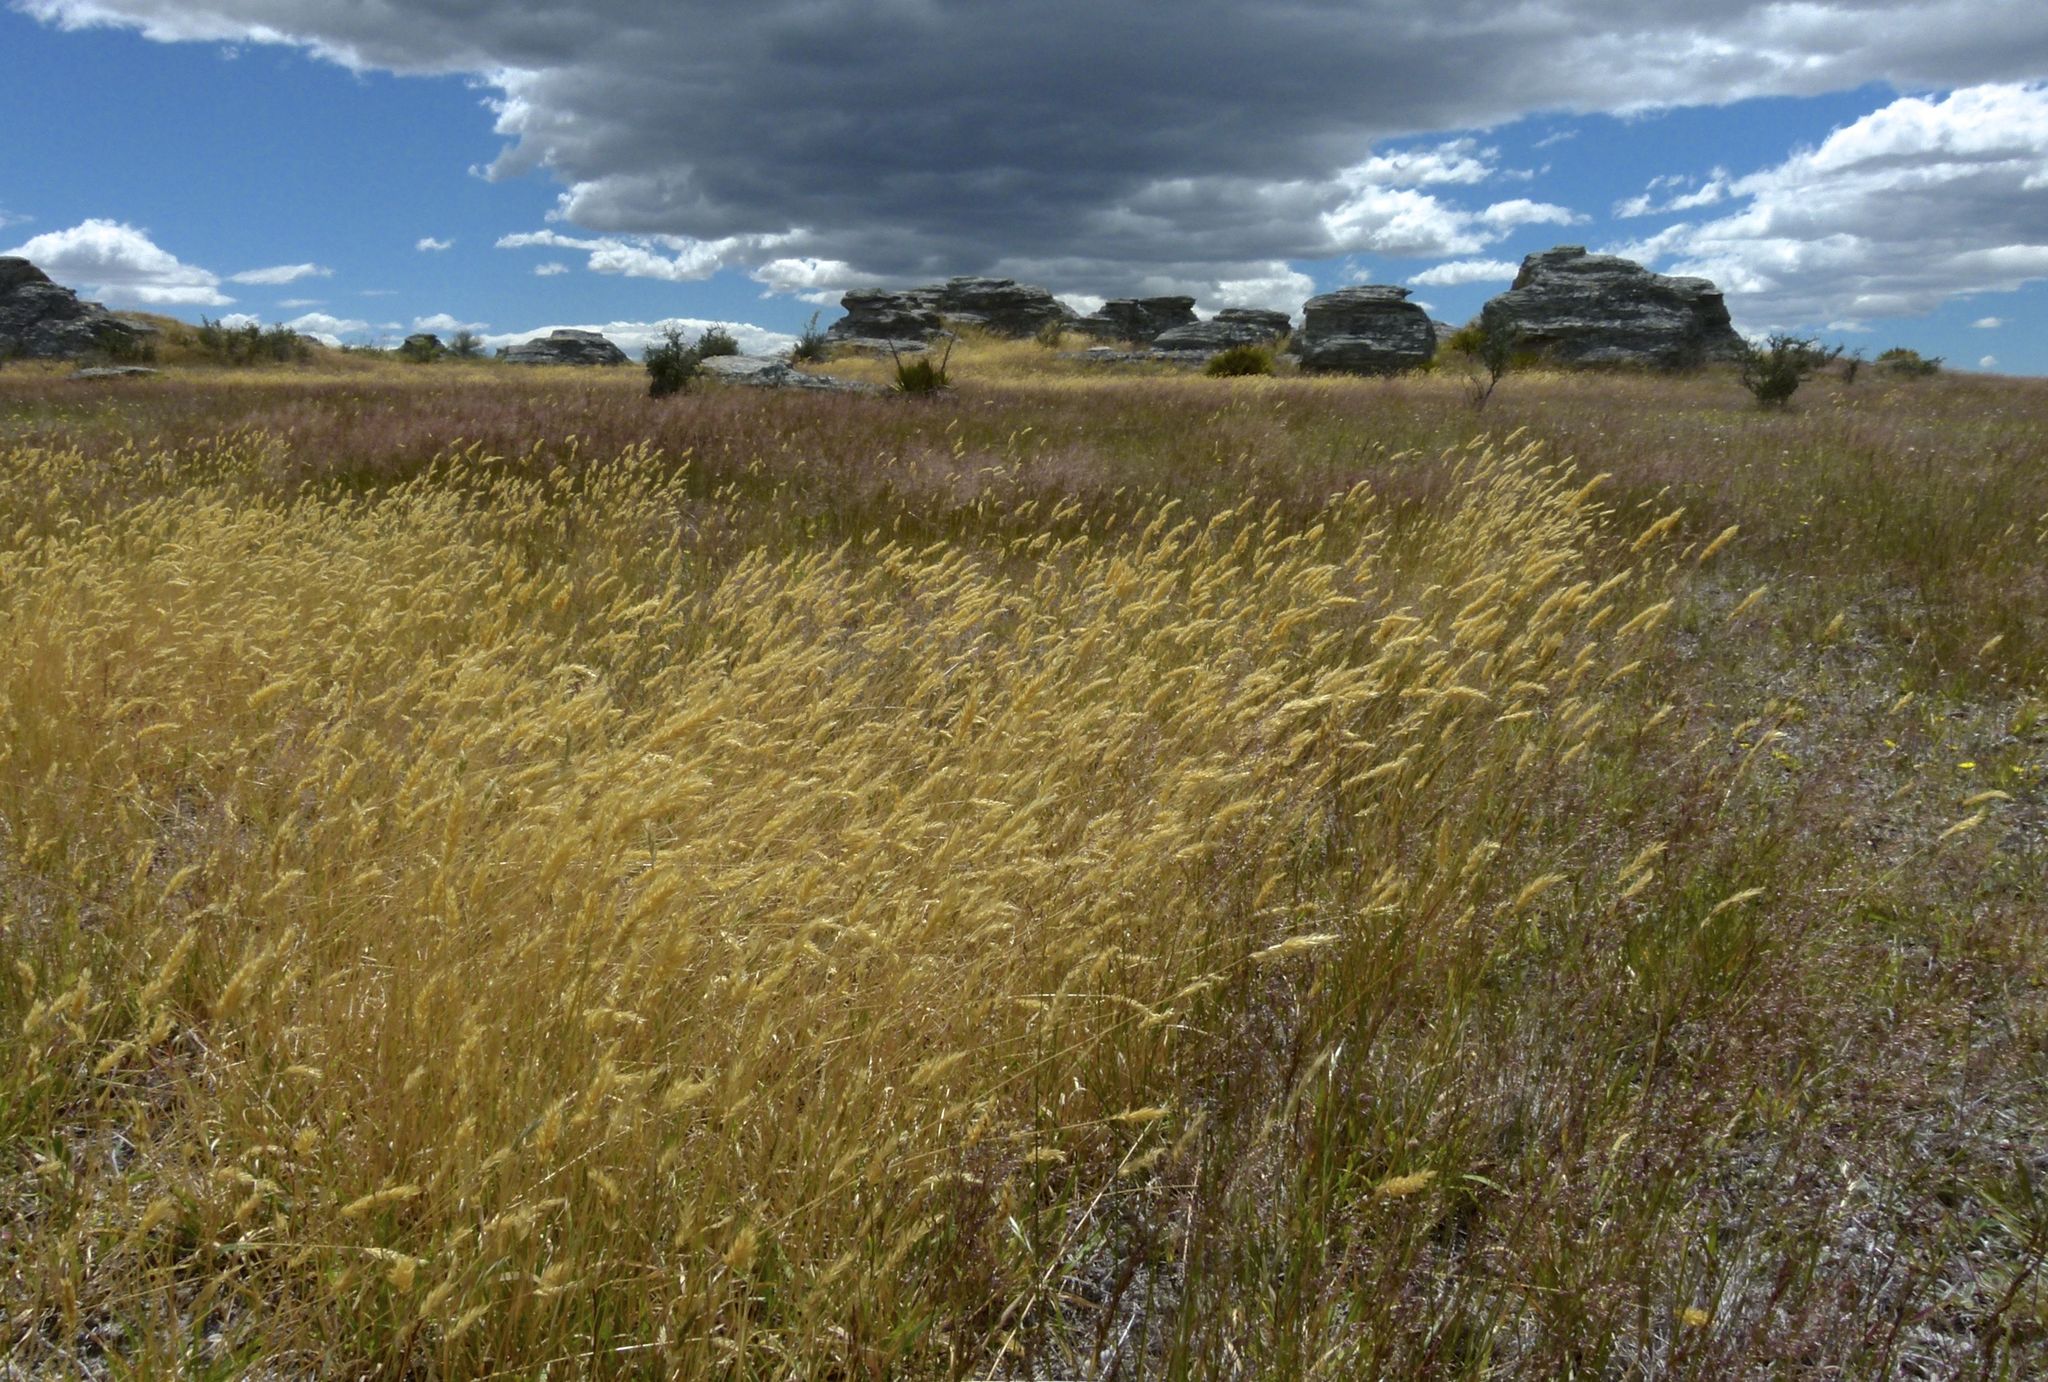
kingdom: Plantae
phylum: Tracheophyta
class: Liliopsida
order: Poales
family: Poaceae
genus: Anthoxanthum
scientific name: Anthoxanthum odoratum
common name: Sweet vernalgrass
